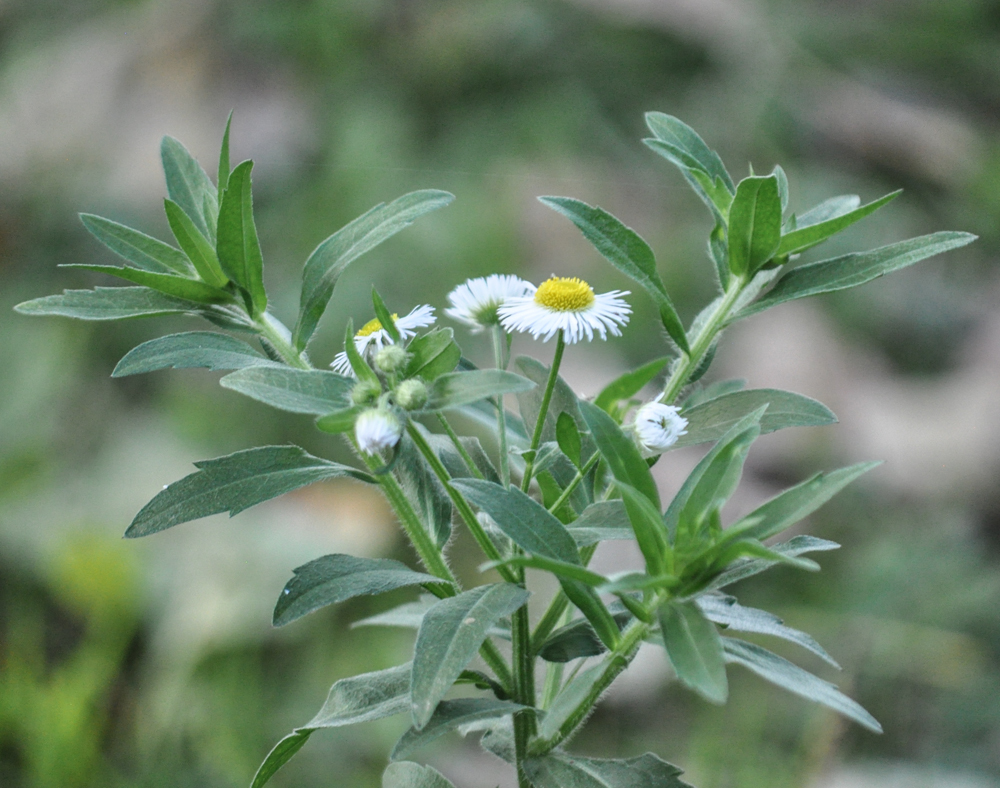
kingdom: Plantae
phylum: Tracheophyta
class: Magnoliopsida
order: Asterales
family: Asteraceae
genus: Erigeron
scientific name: Erigeron annuus
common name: Tall fleabane
